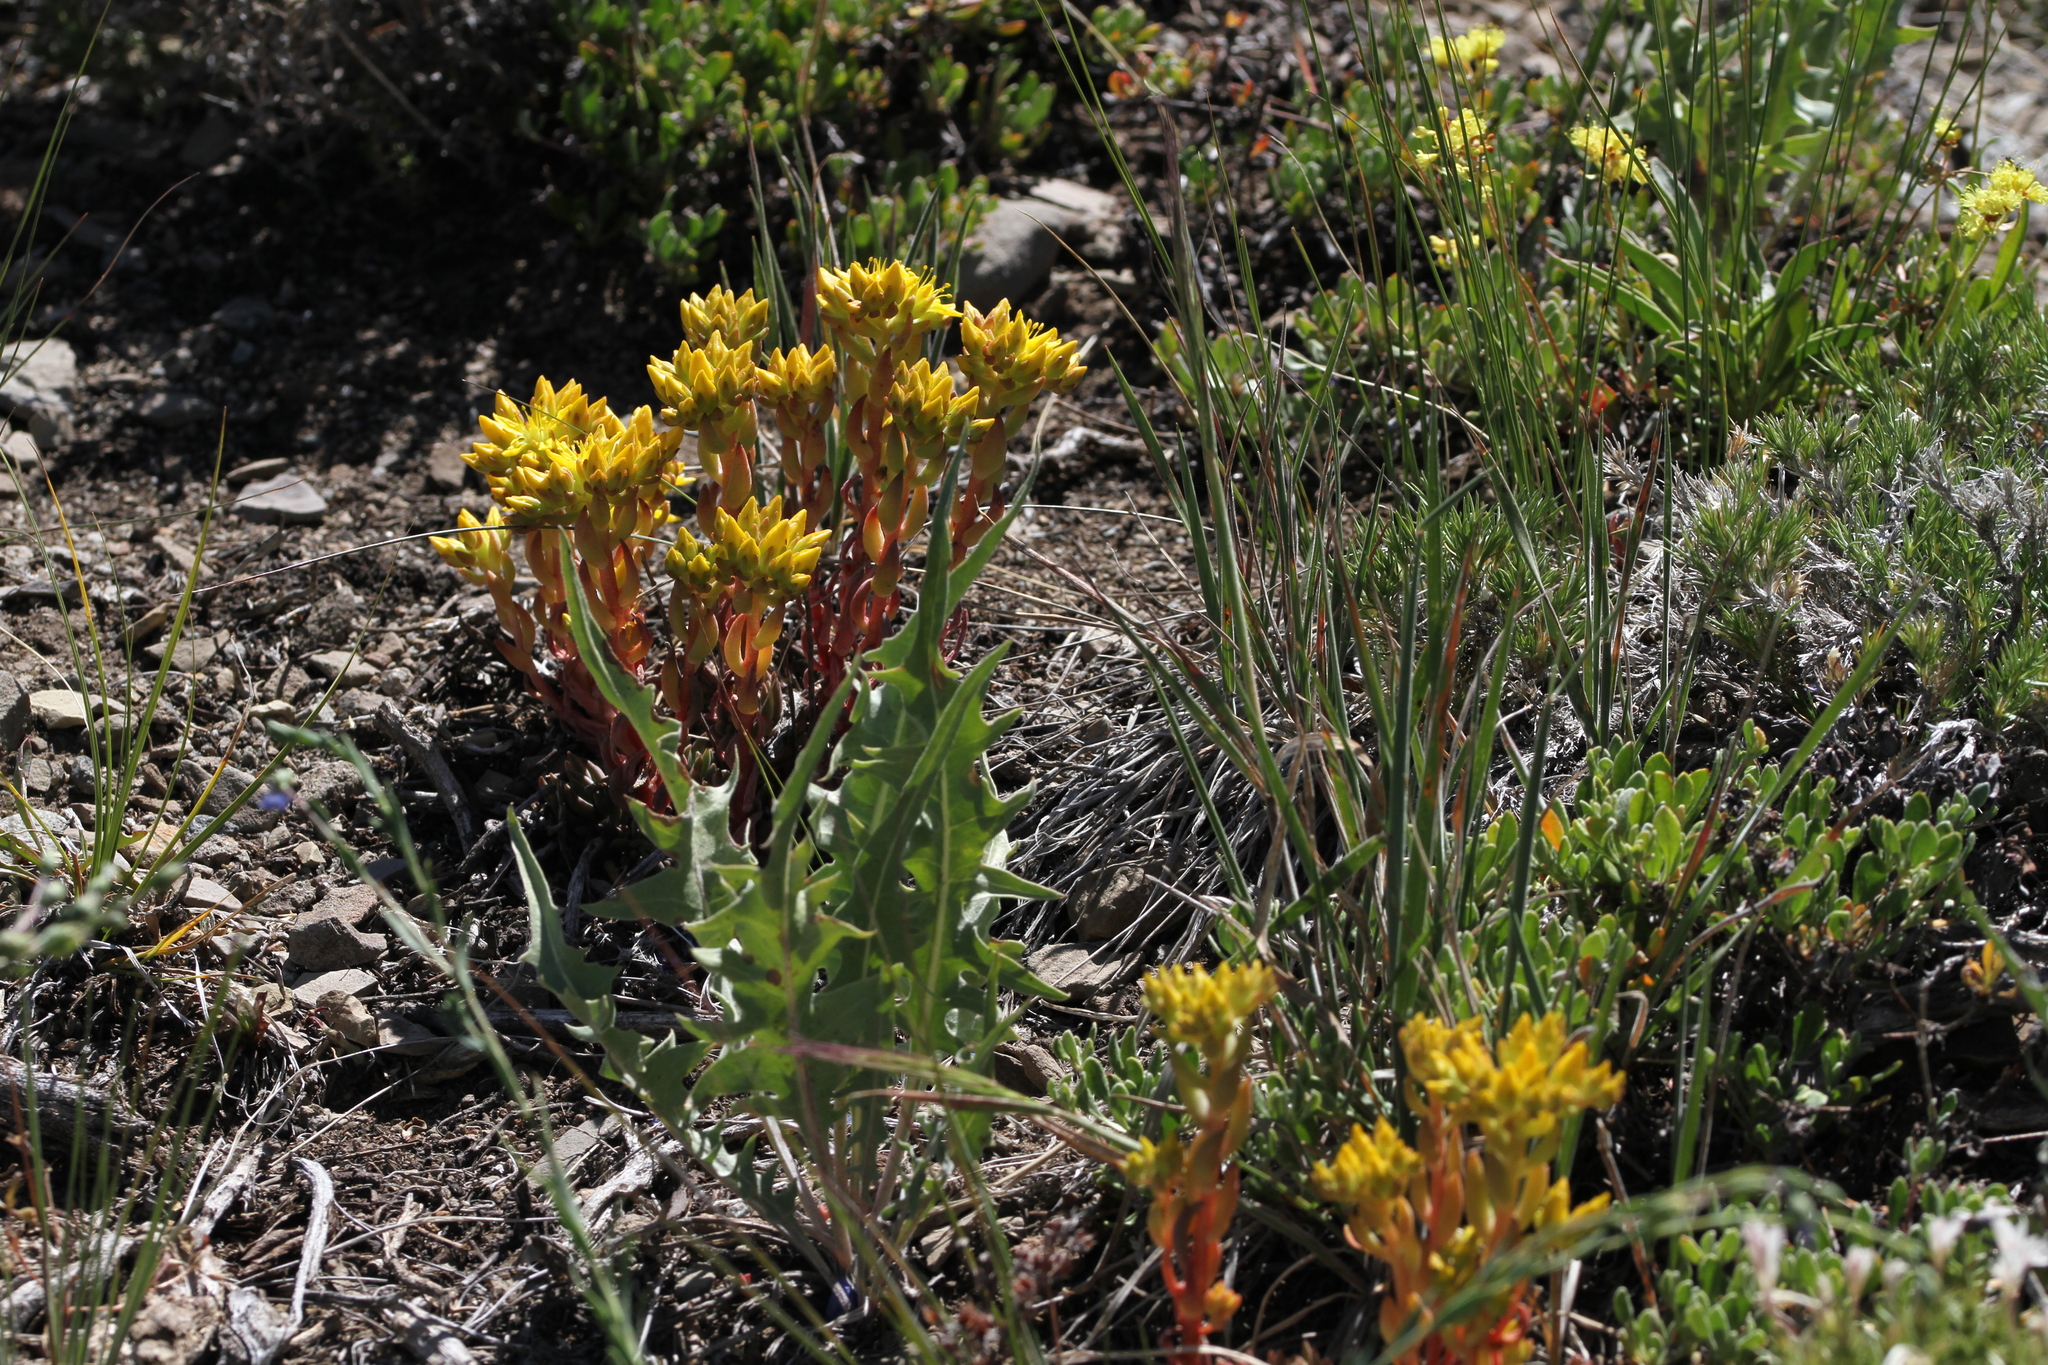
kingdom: Plantae
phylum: Tracheophyta
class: Magnoliopsida
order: Saxifragales
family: Crassulaceae
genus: Sedum
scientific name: Sedum lanceolatum
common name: Common stonecrop
